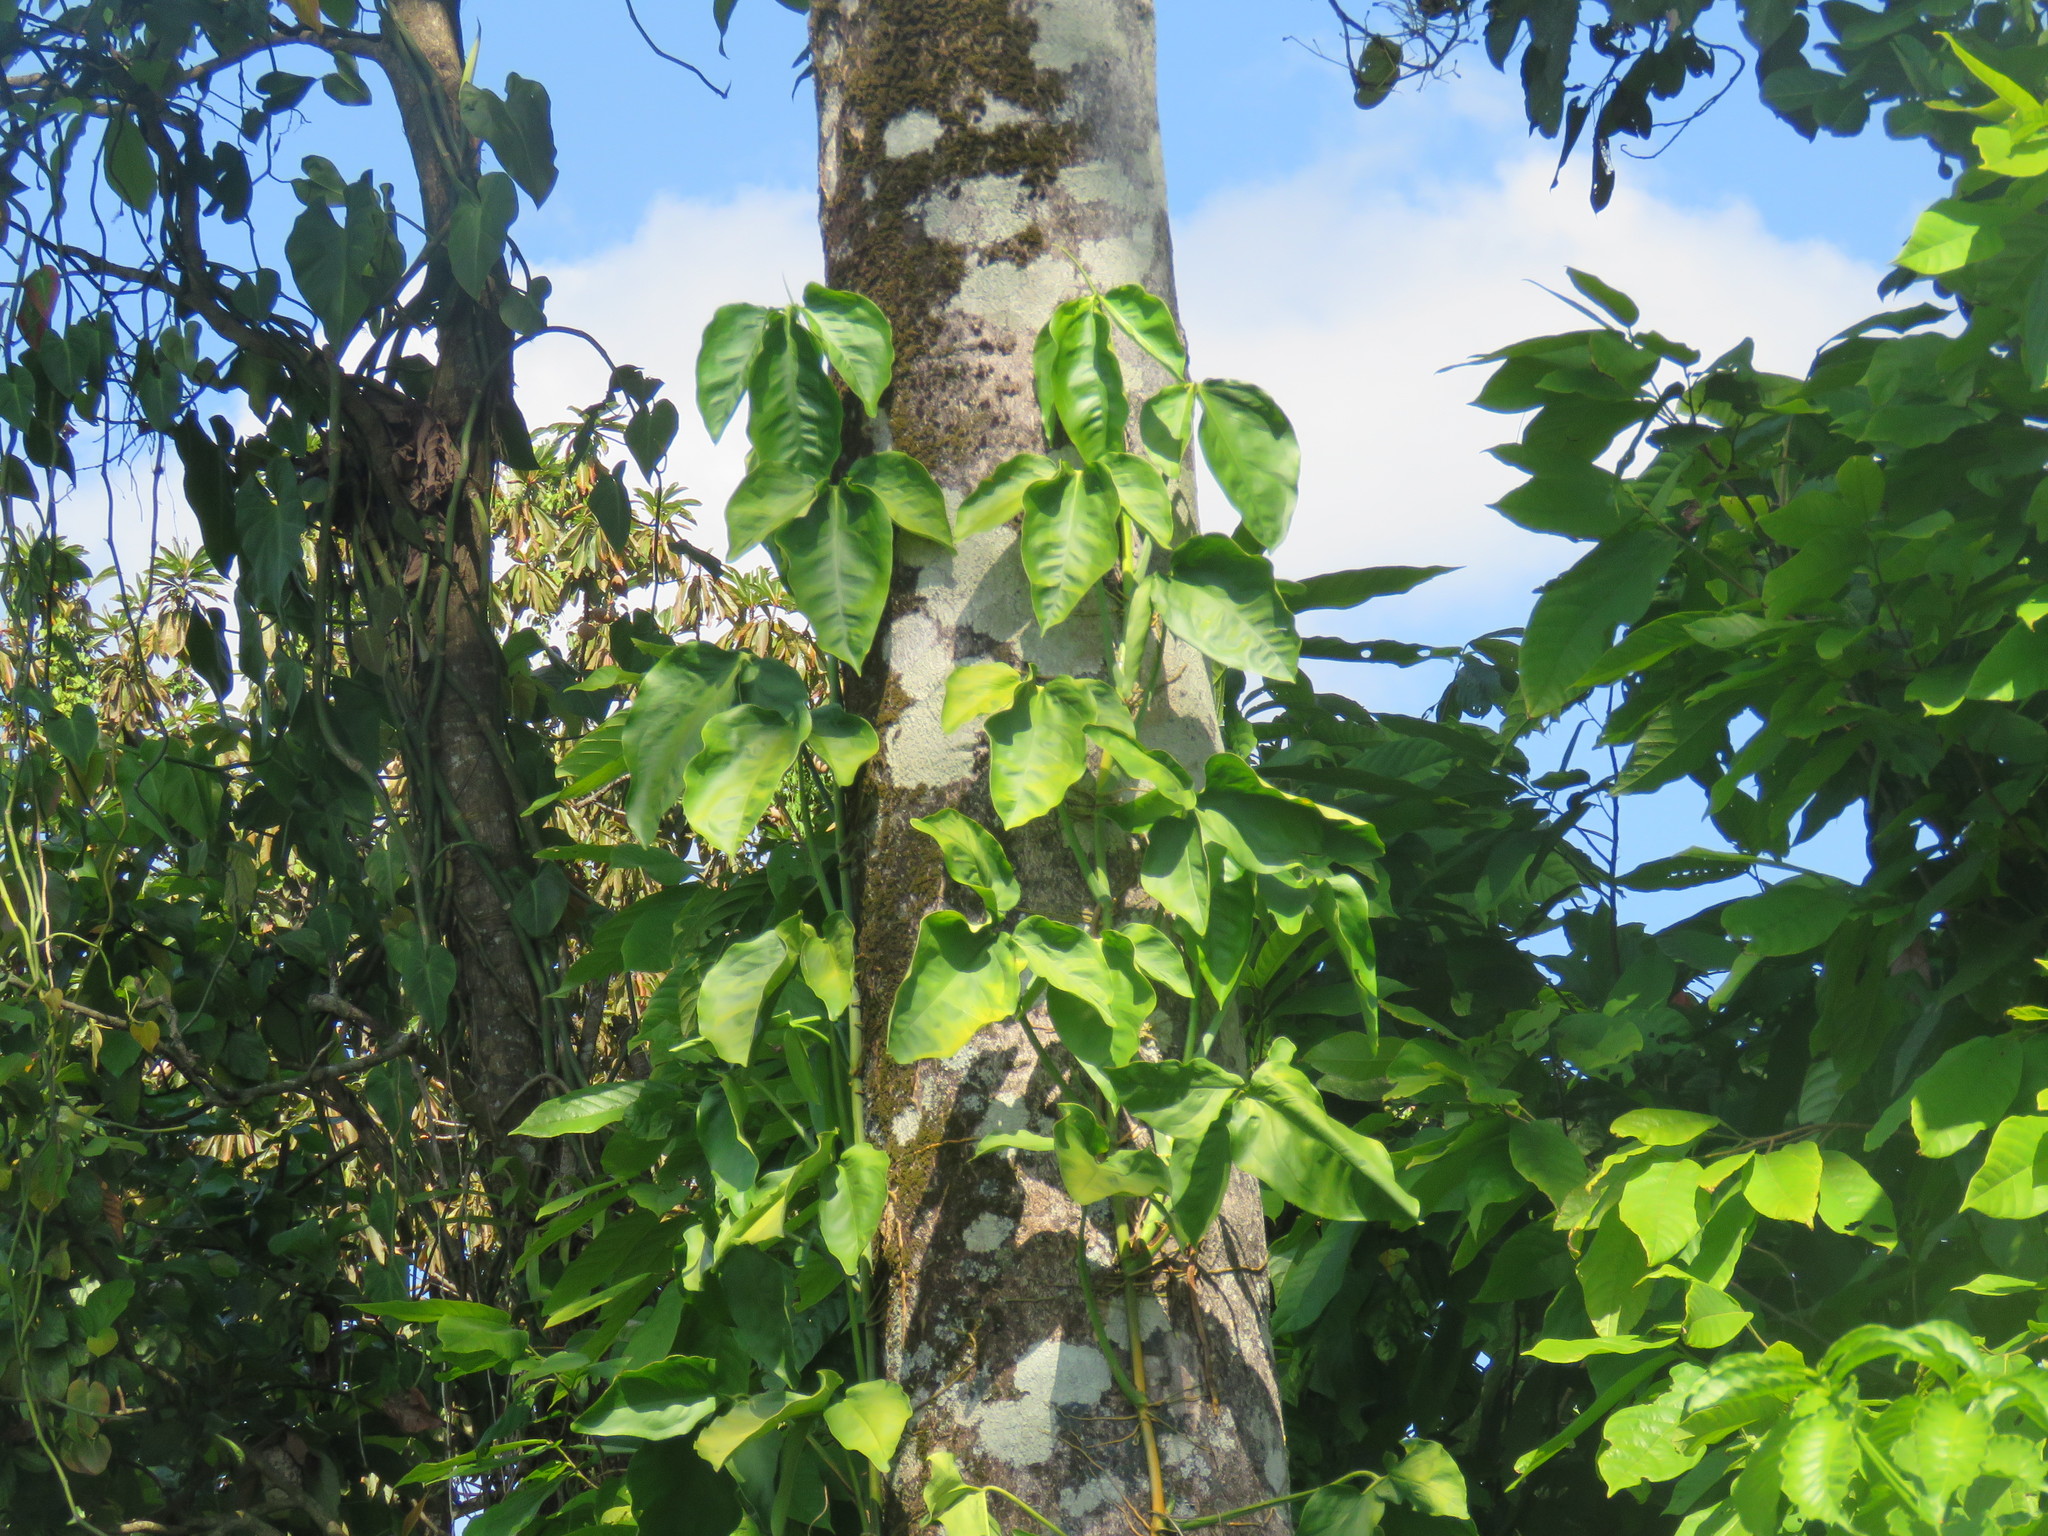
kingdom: Plantae
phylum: Tracheophyta
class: Liliopsida
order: Alismatales
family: Araceae
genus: Syngonium
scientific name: Syngonium podophyllum
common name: American evergreen
